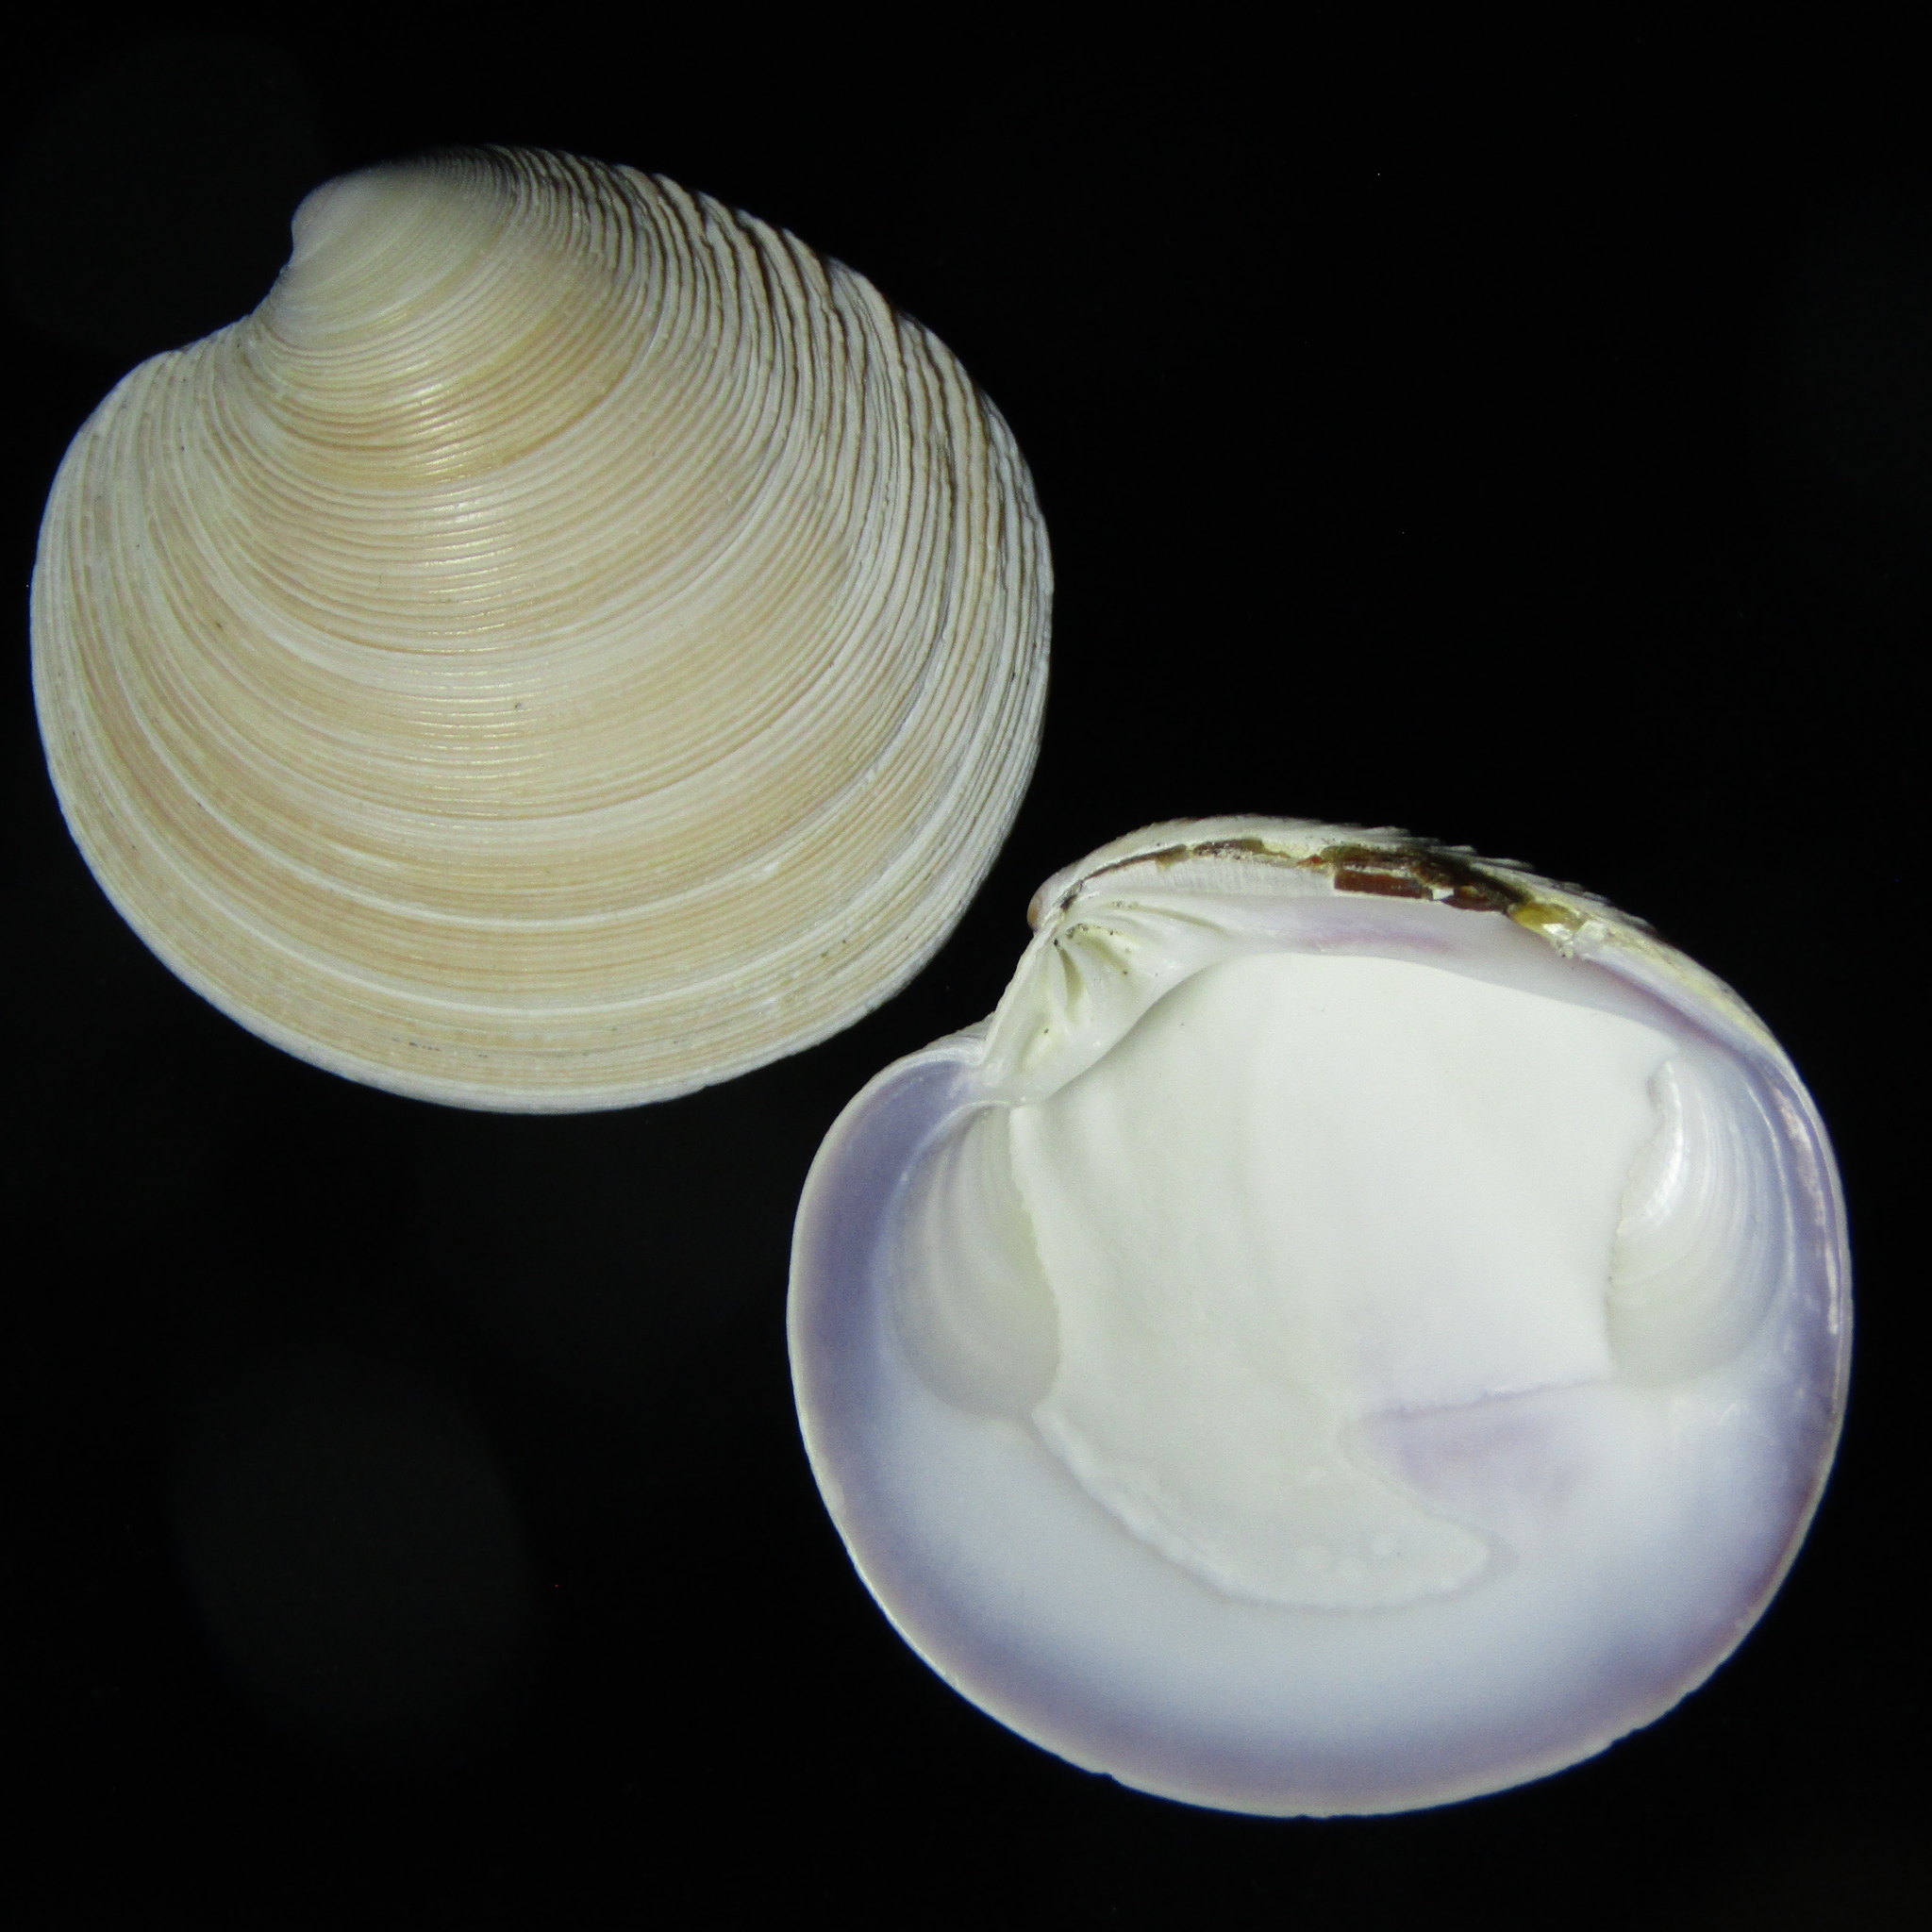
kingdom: Animalia
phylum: Mollusca
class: Bivalvia
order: Venerida
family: Veneridae
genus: Dosinia
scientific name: Dosinia anus
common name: Old-woman dosinia
